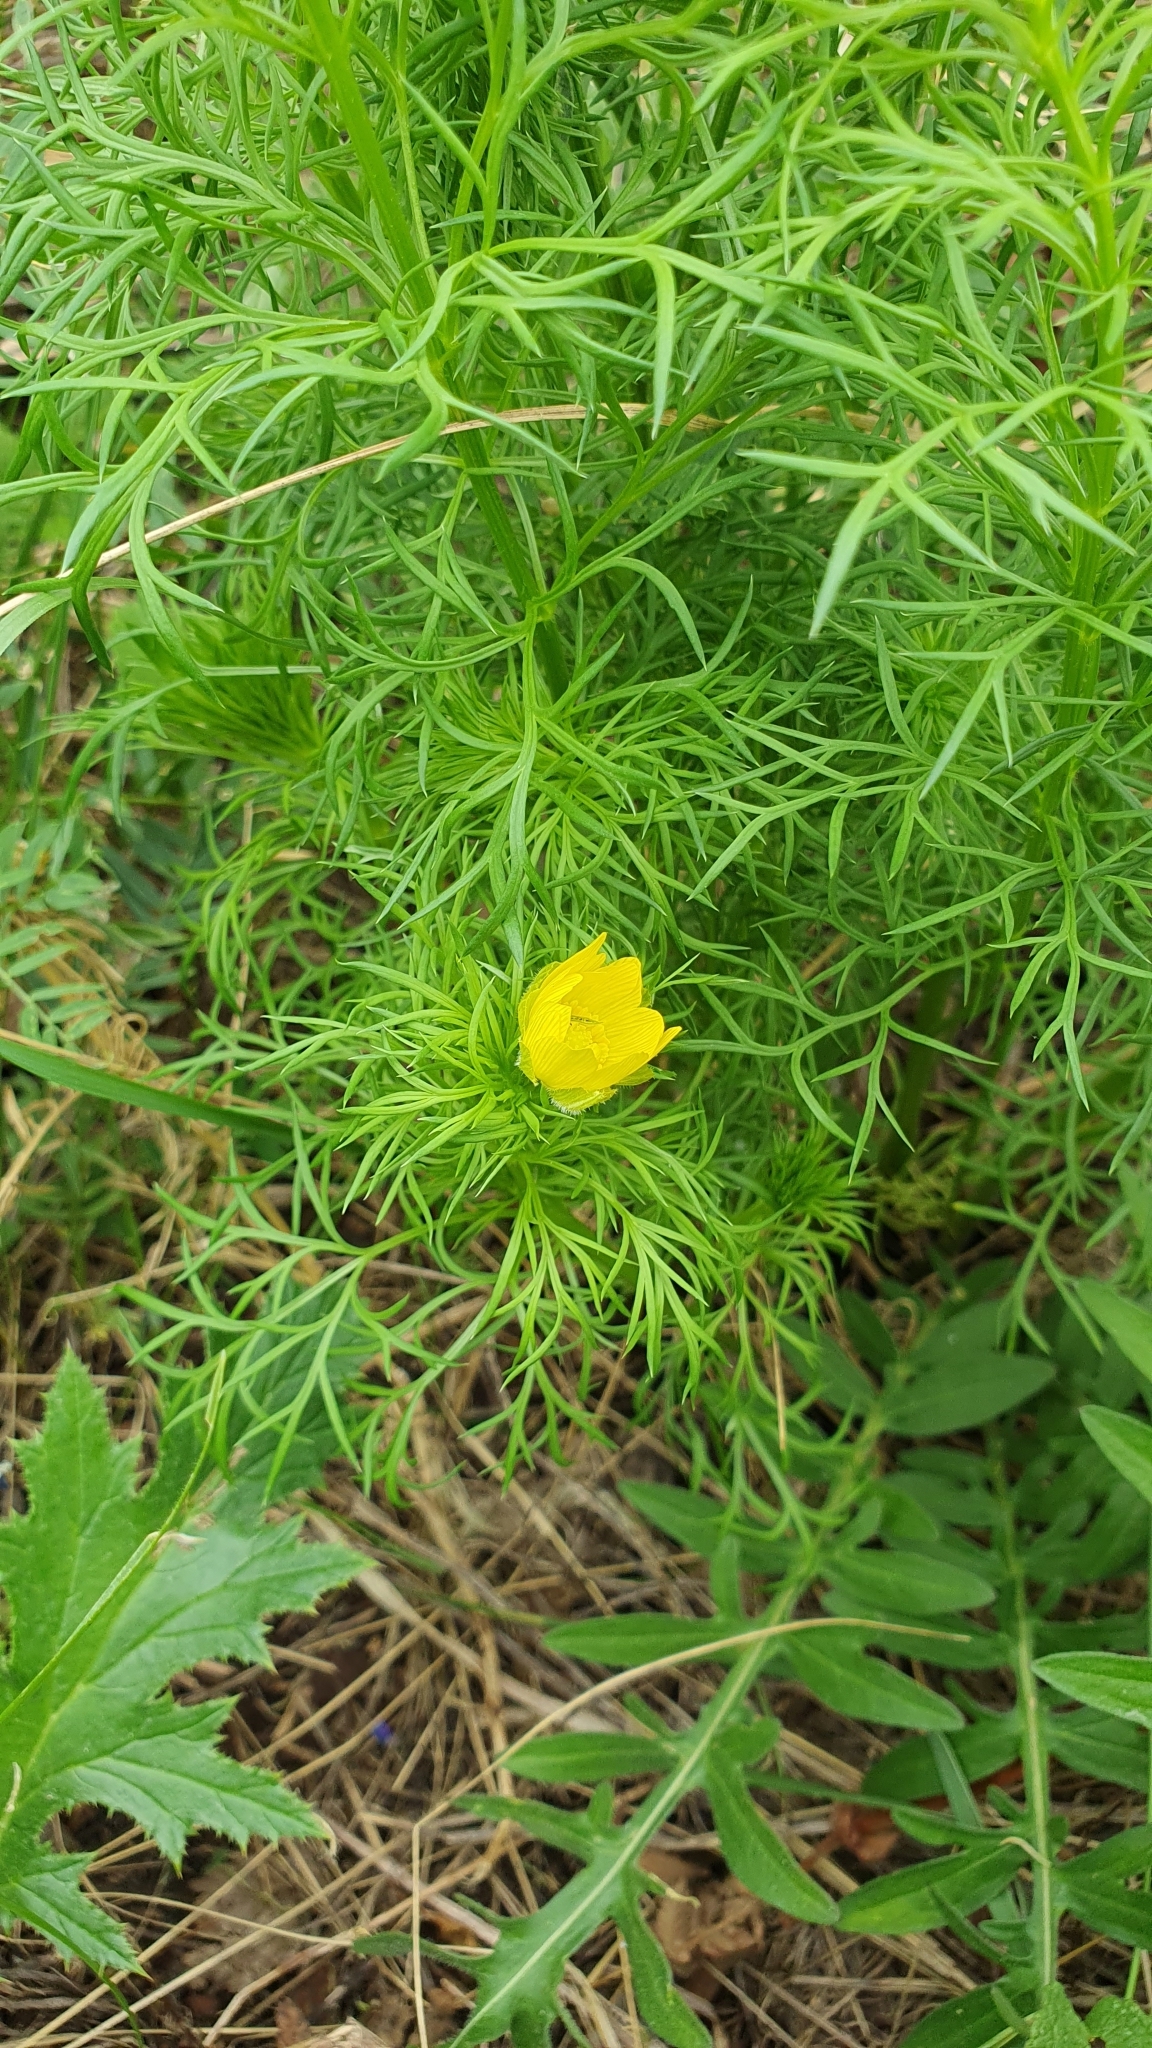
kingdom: Plantae
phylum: Tracheophyta
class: Magnoliopsida
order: Ranunculales
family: Ranunculaceae
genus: Adonis
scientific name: Adonis vernalis
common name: Yellow pheasants-eye
